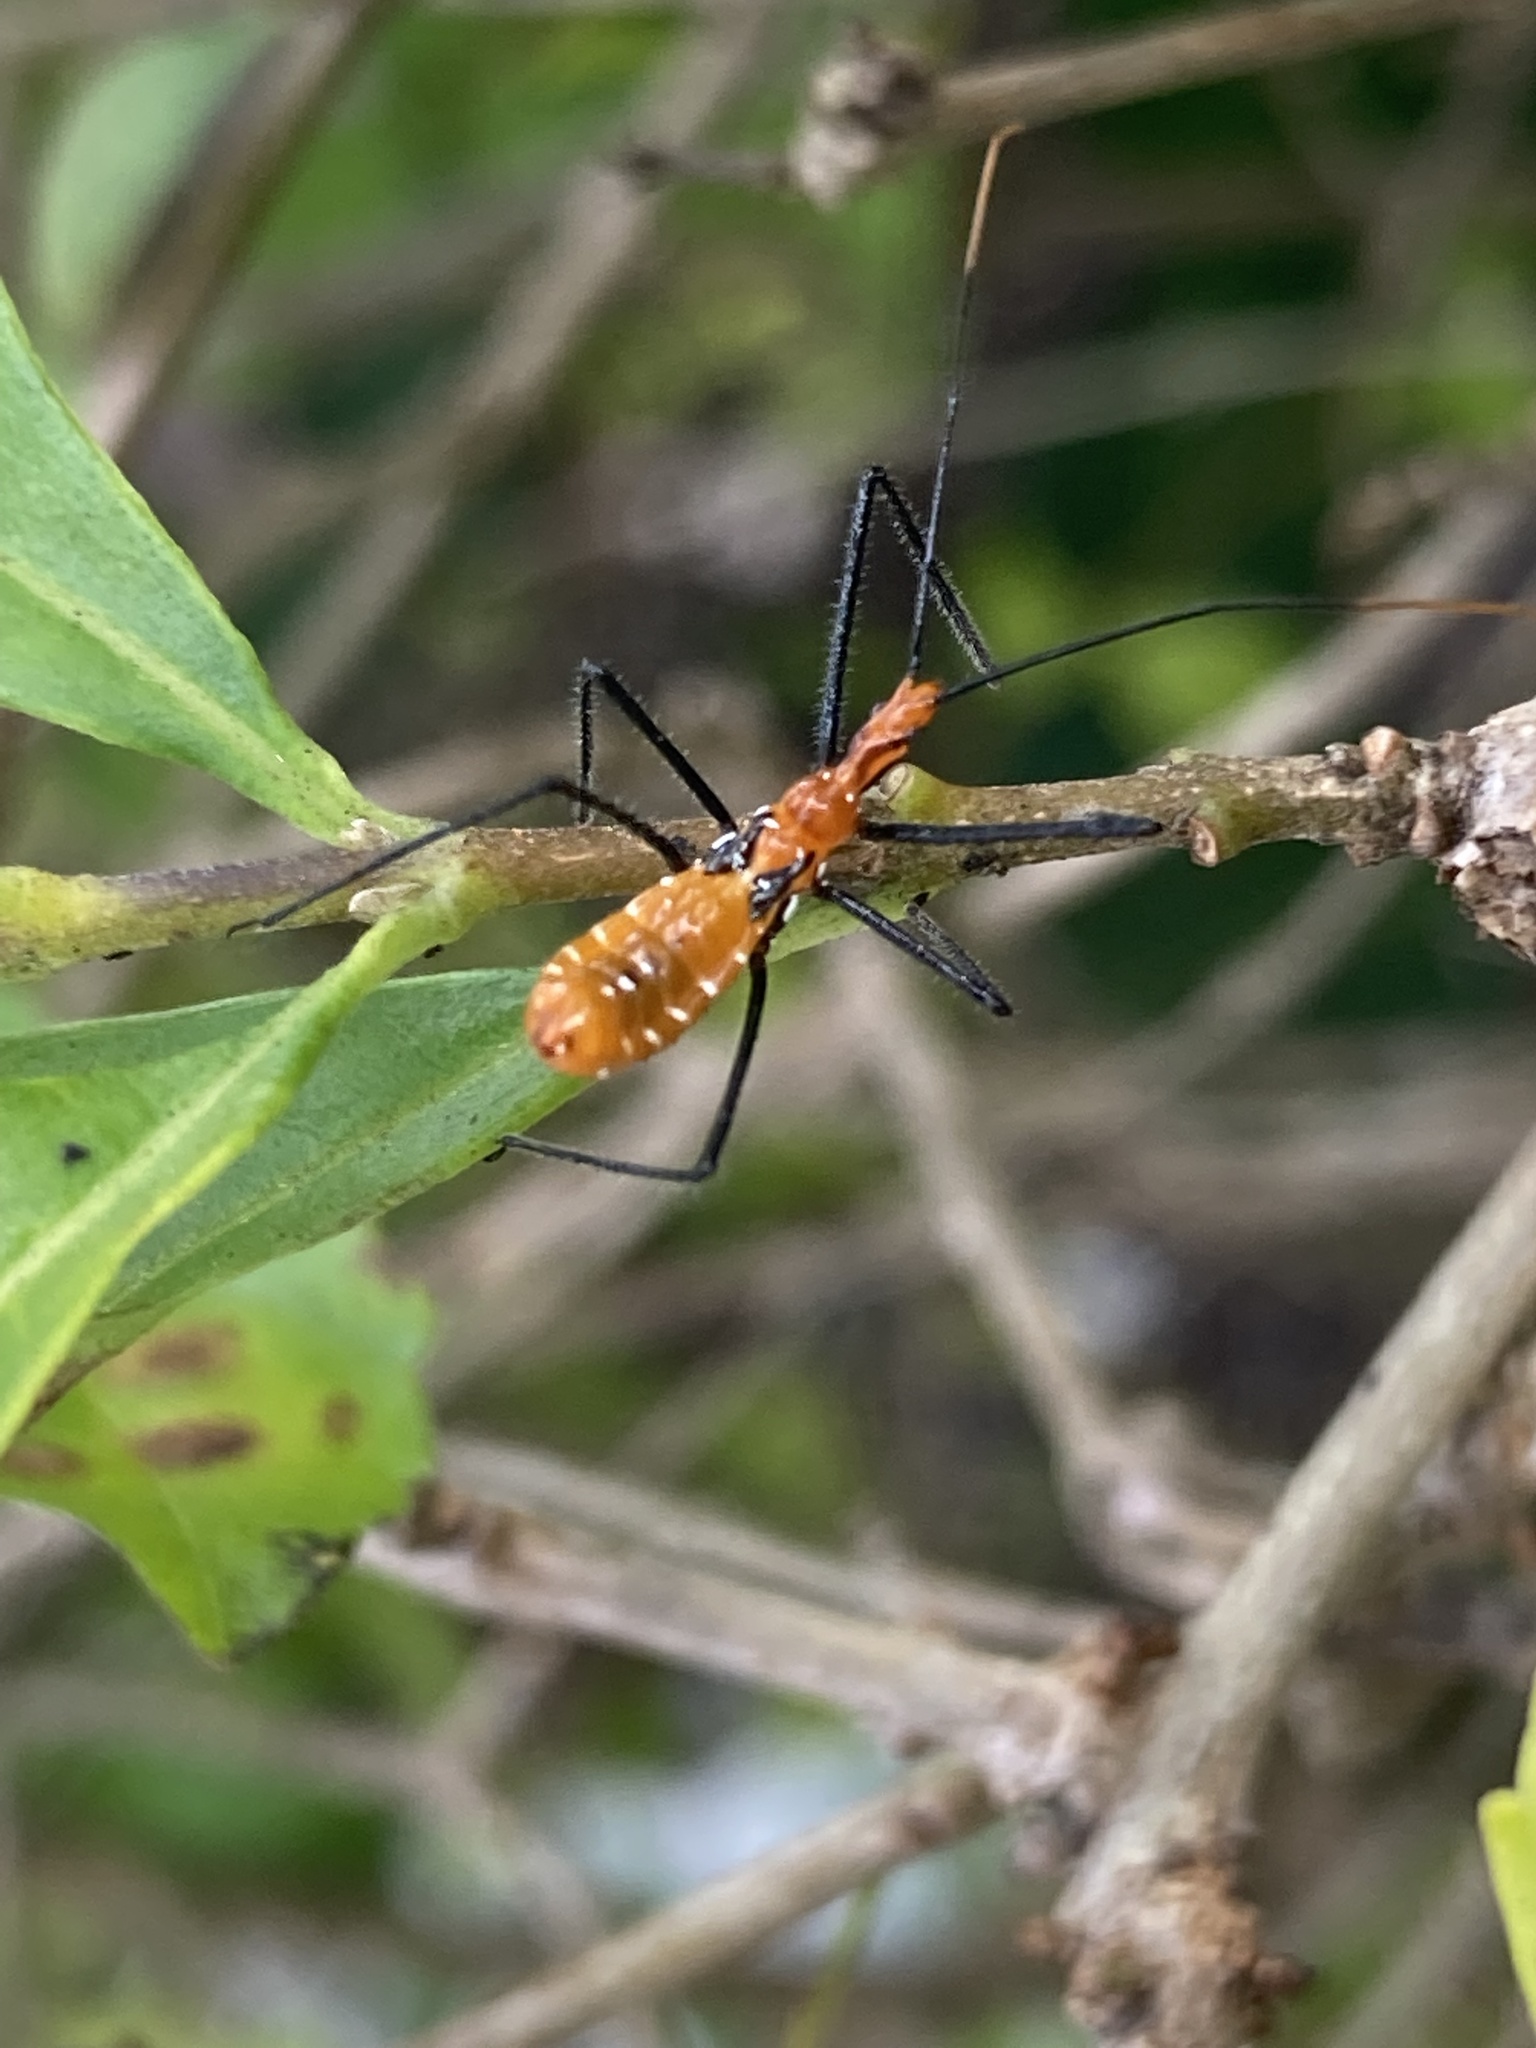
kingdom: Animalia
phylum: Arthropoda
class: Insecta
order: Hemiptera
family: Reduviidae
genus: Zelus
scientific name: Zelus longipes
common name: Milkweed assassin bug
